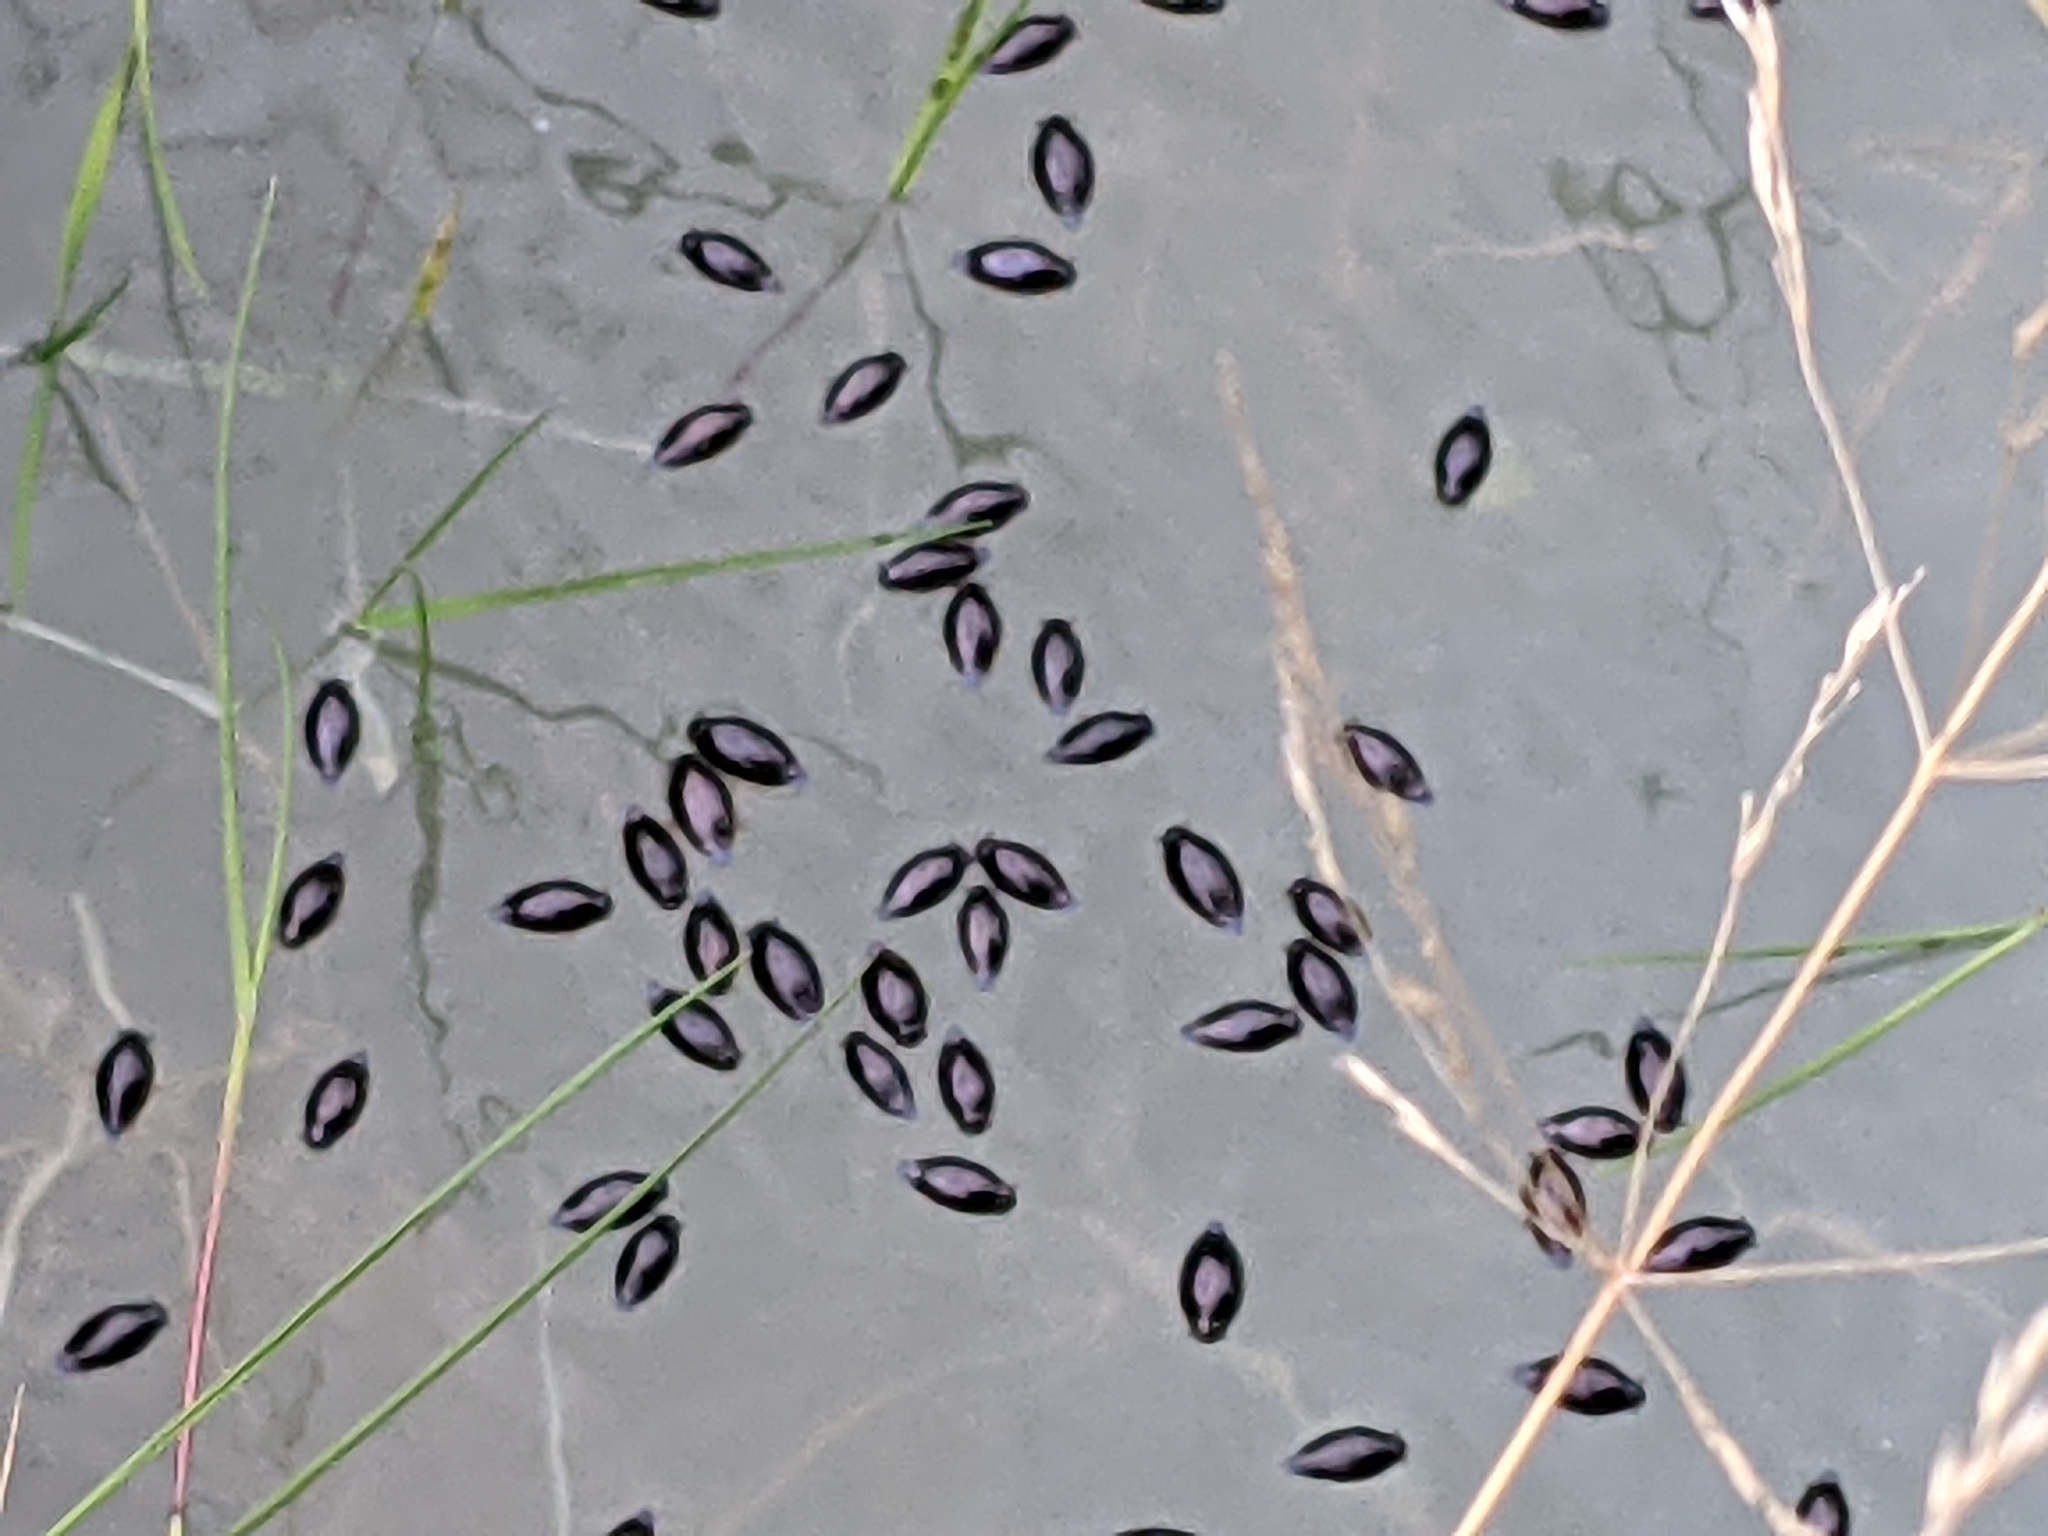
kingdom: Animalia
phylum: Arthropoda
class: Insecta
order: Coleoptera
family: Gyrinidae
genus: Gyrinus
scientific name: Gyrinus
